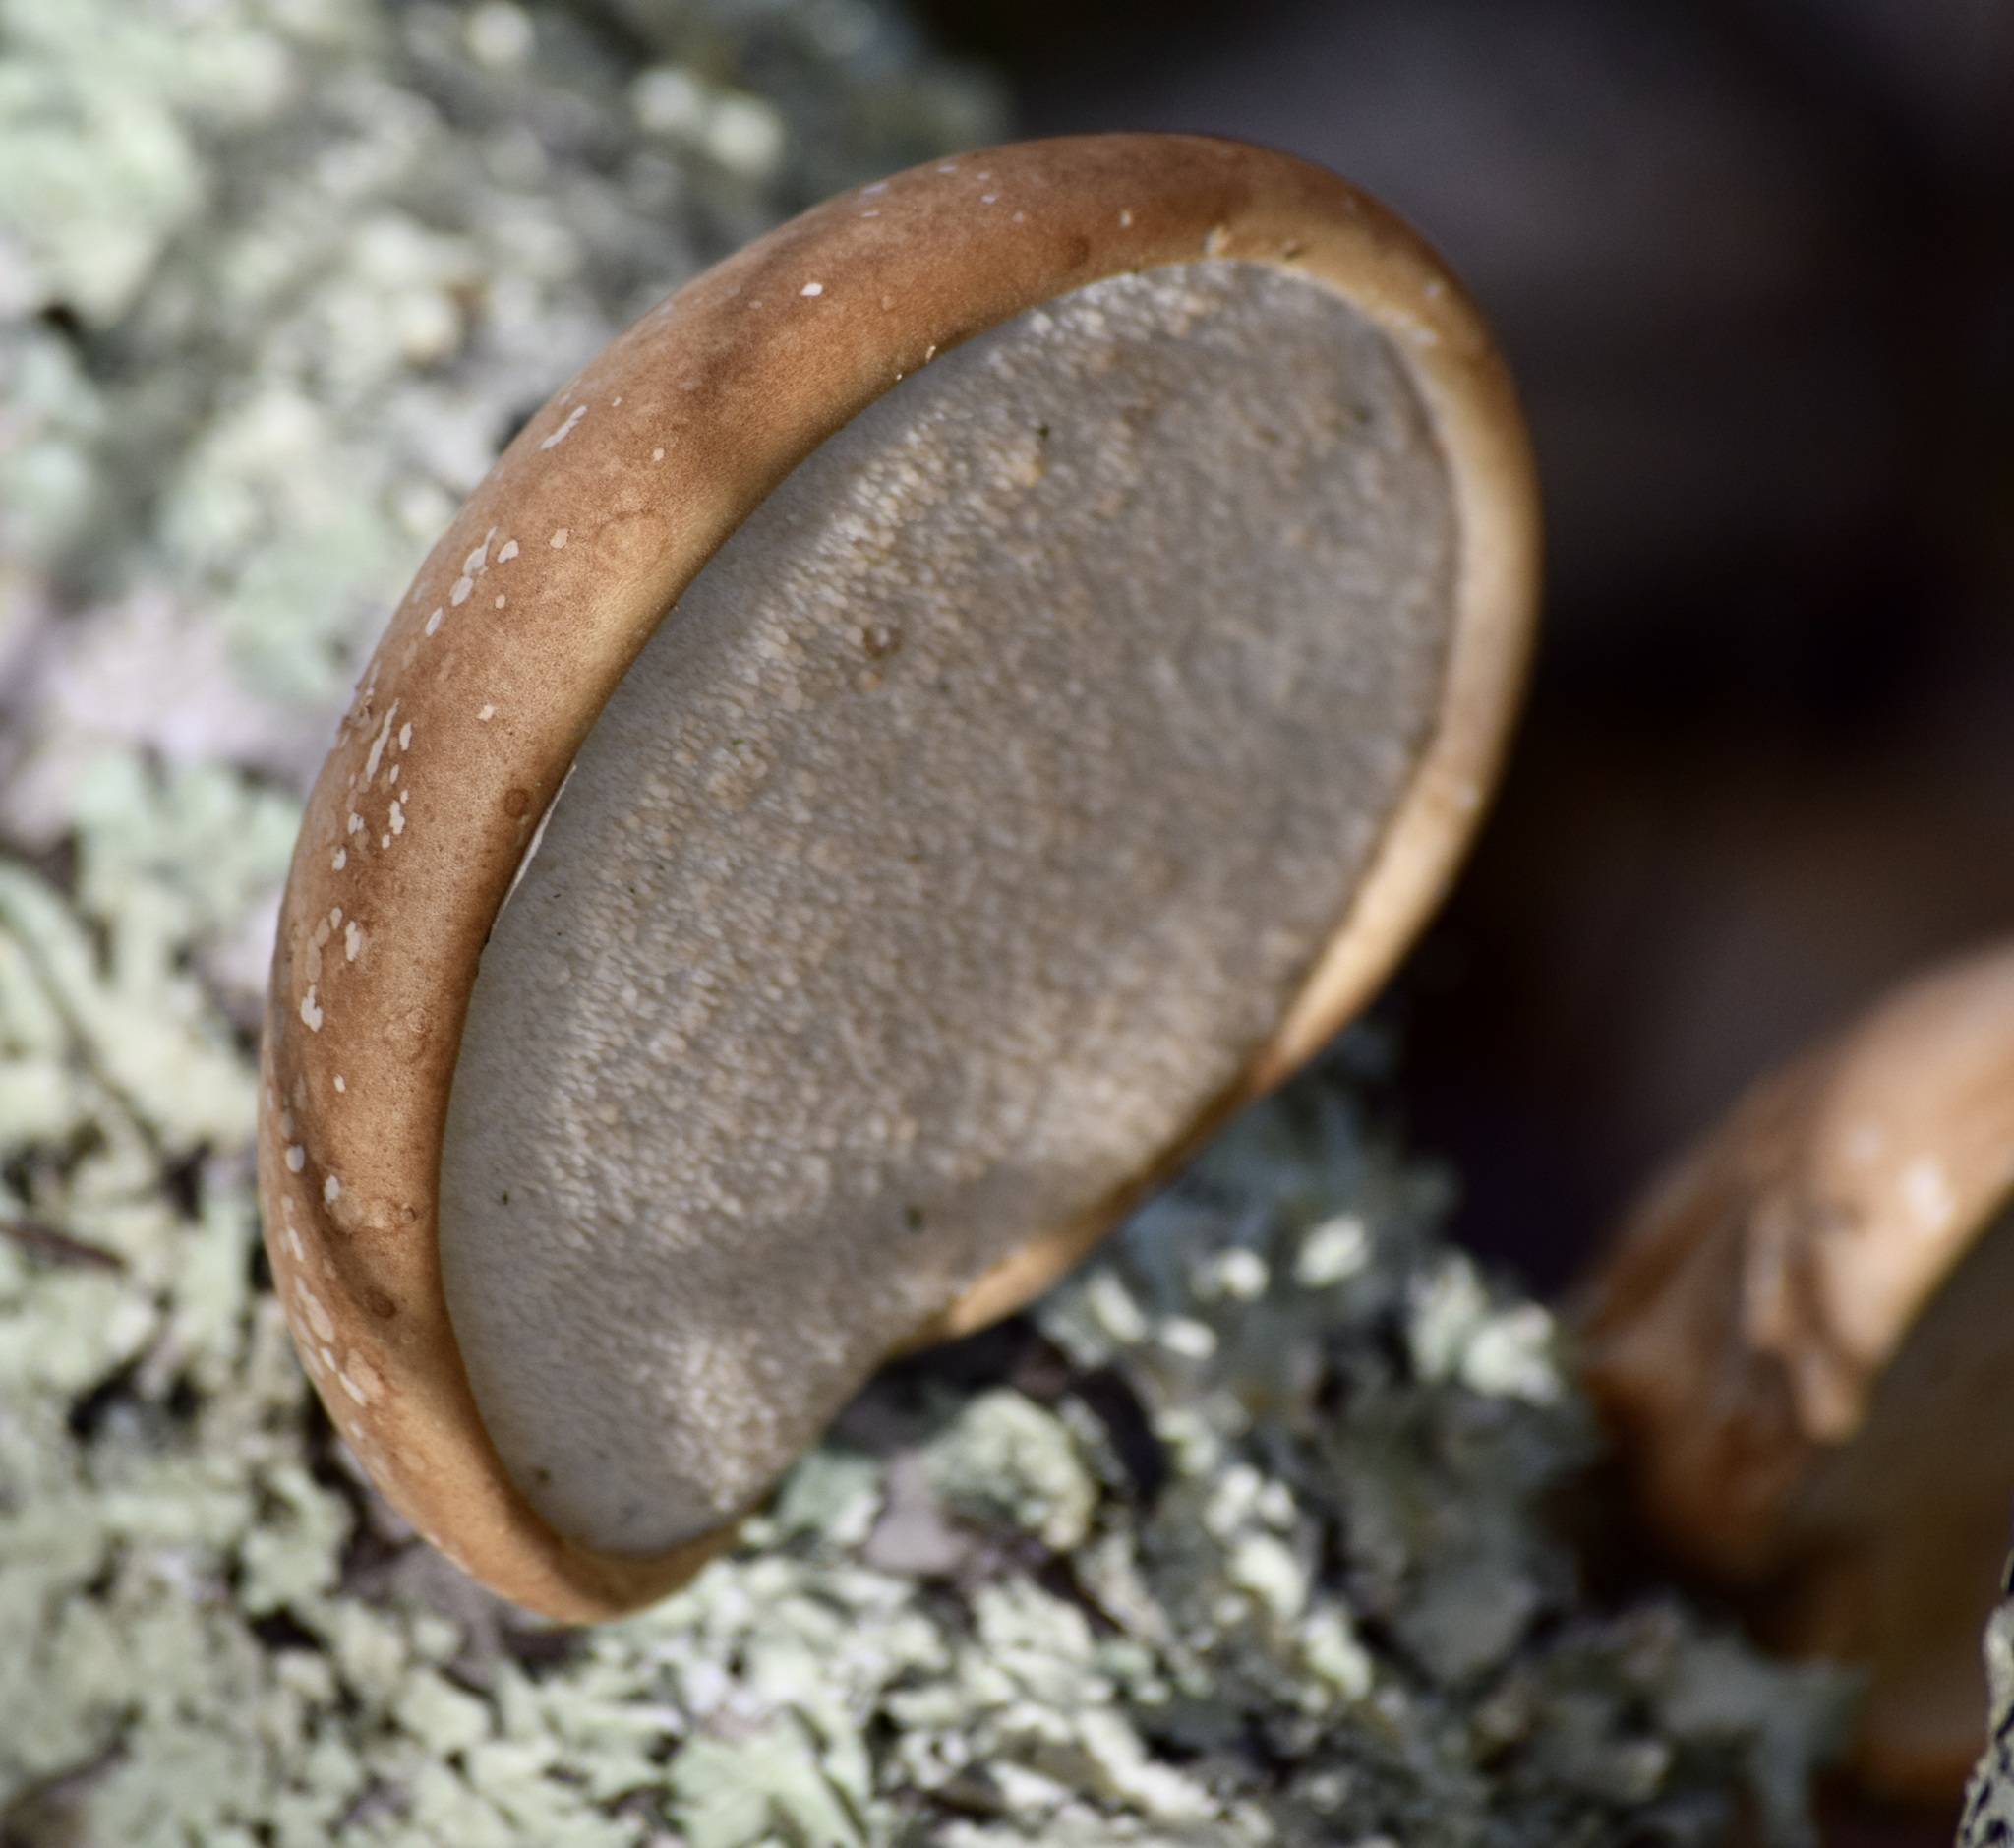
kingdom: Fungi
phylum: Basidiomycota
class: Agaricomycetes
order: Polyporales
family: Fomitopsidaceae
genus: Fomitopsis
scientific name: Fomitopsis betulina
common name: Birch polypore
